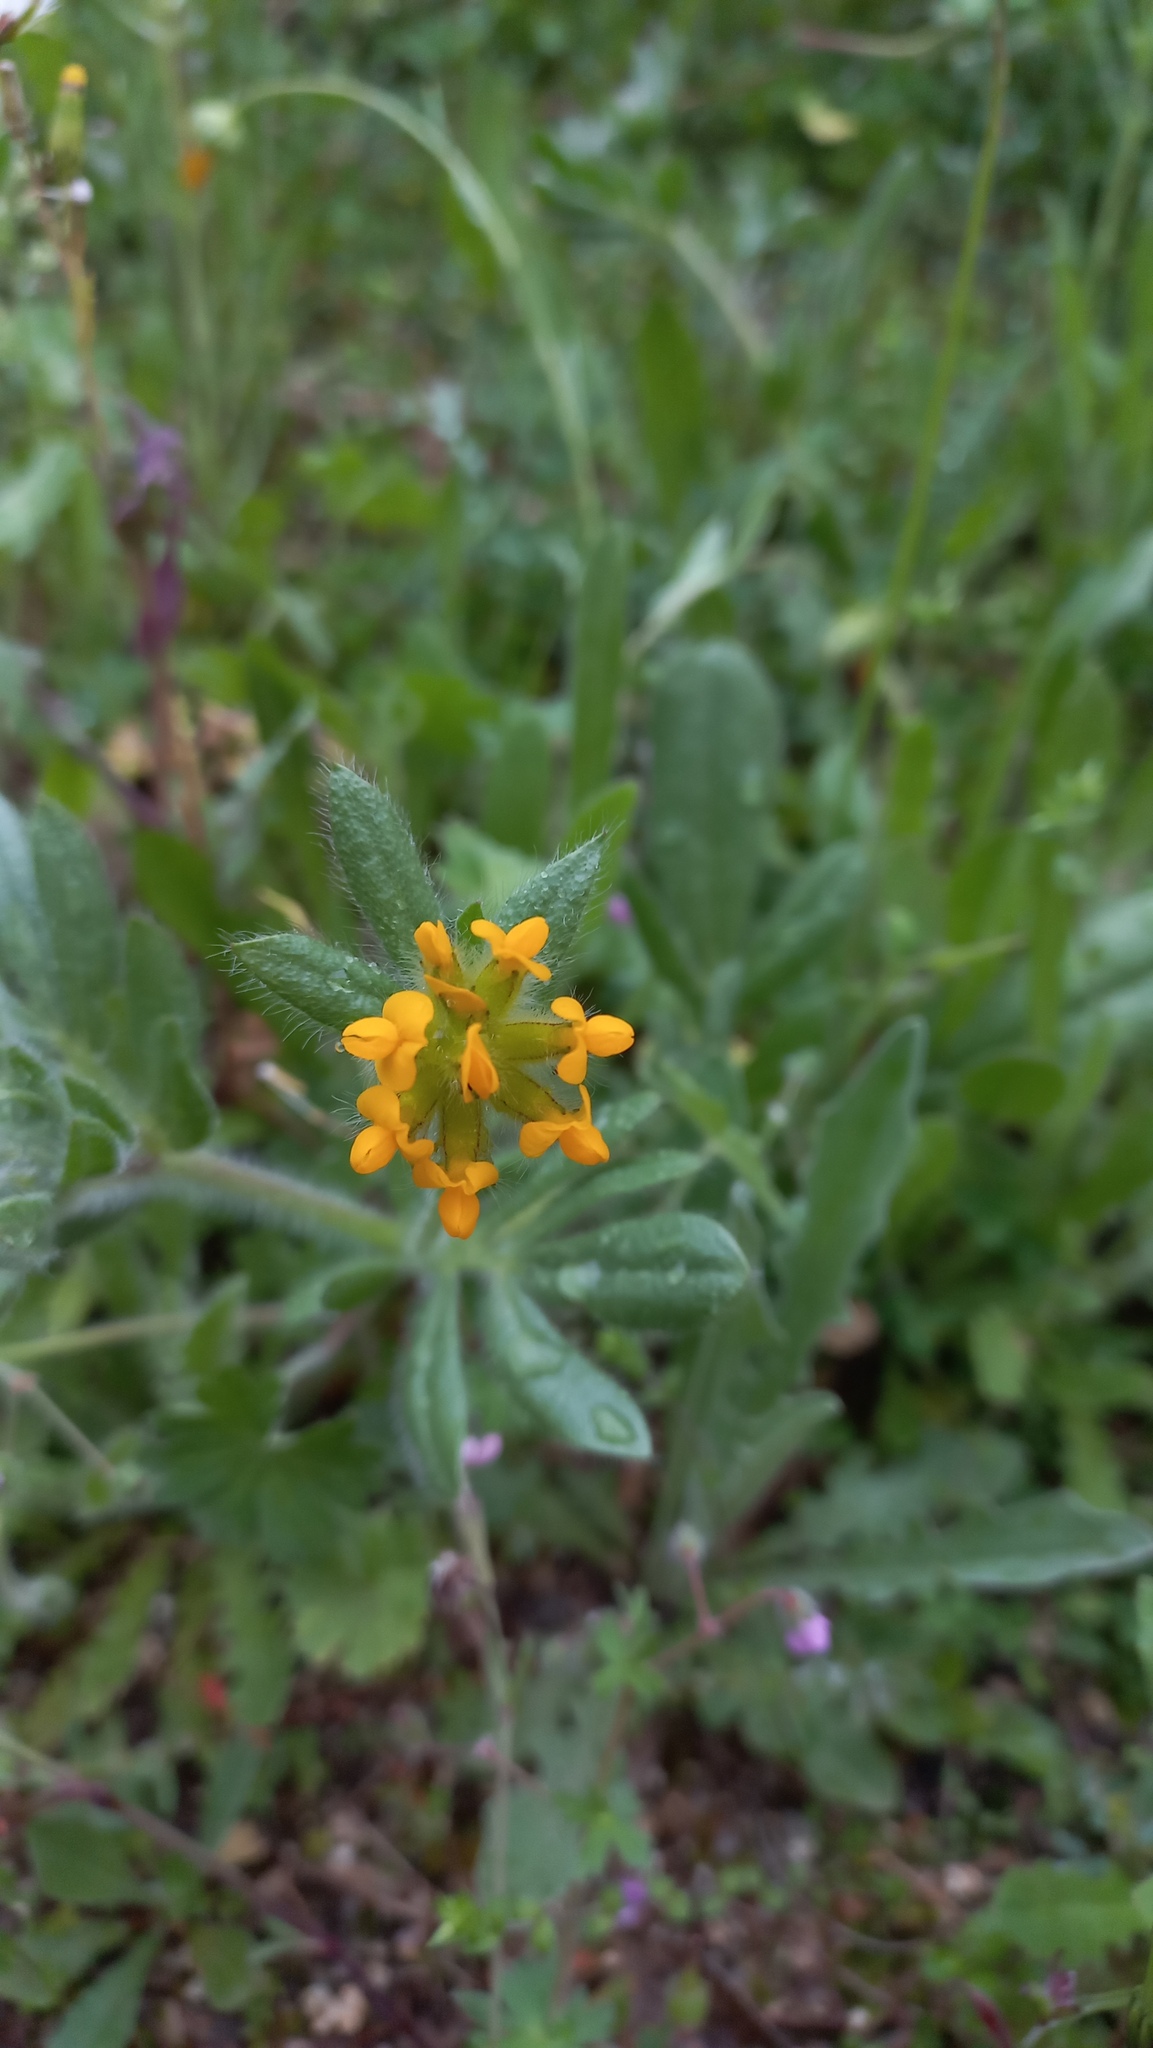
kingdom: Plantae
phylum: Tracheophyta
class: Magnoliopsida
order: Fabales
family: Fabaceae
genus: Anthyllis
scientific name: Anthyllis lotoides
